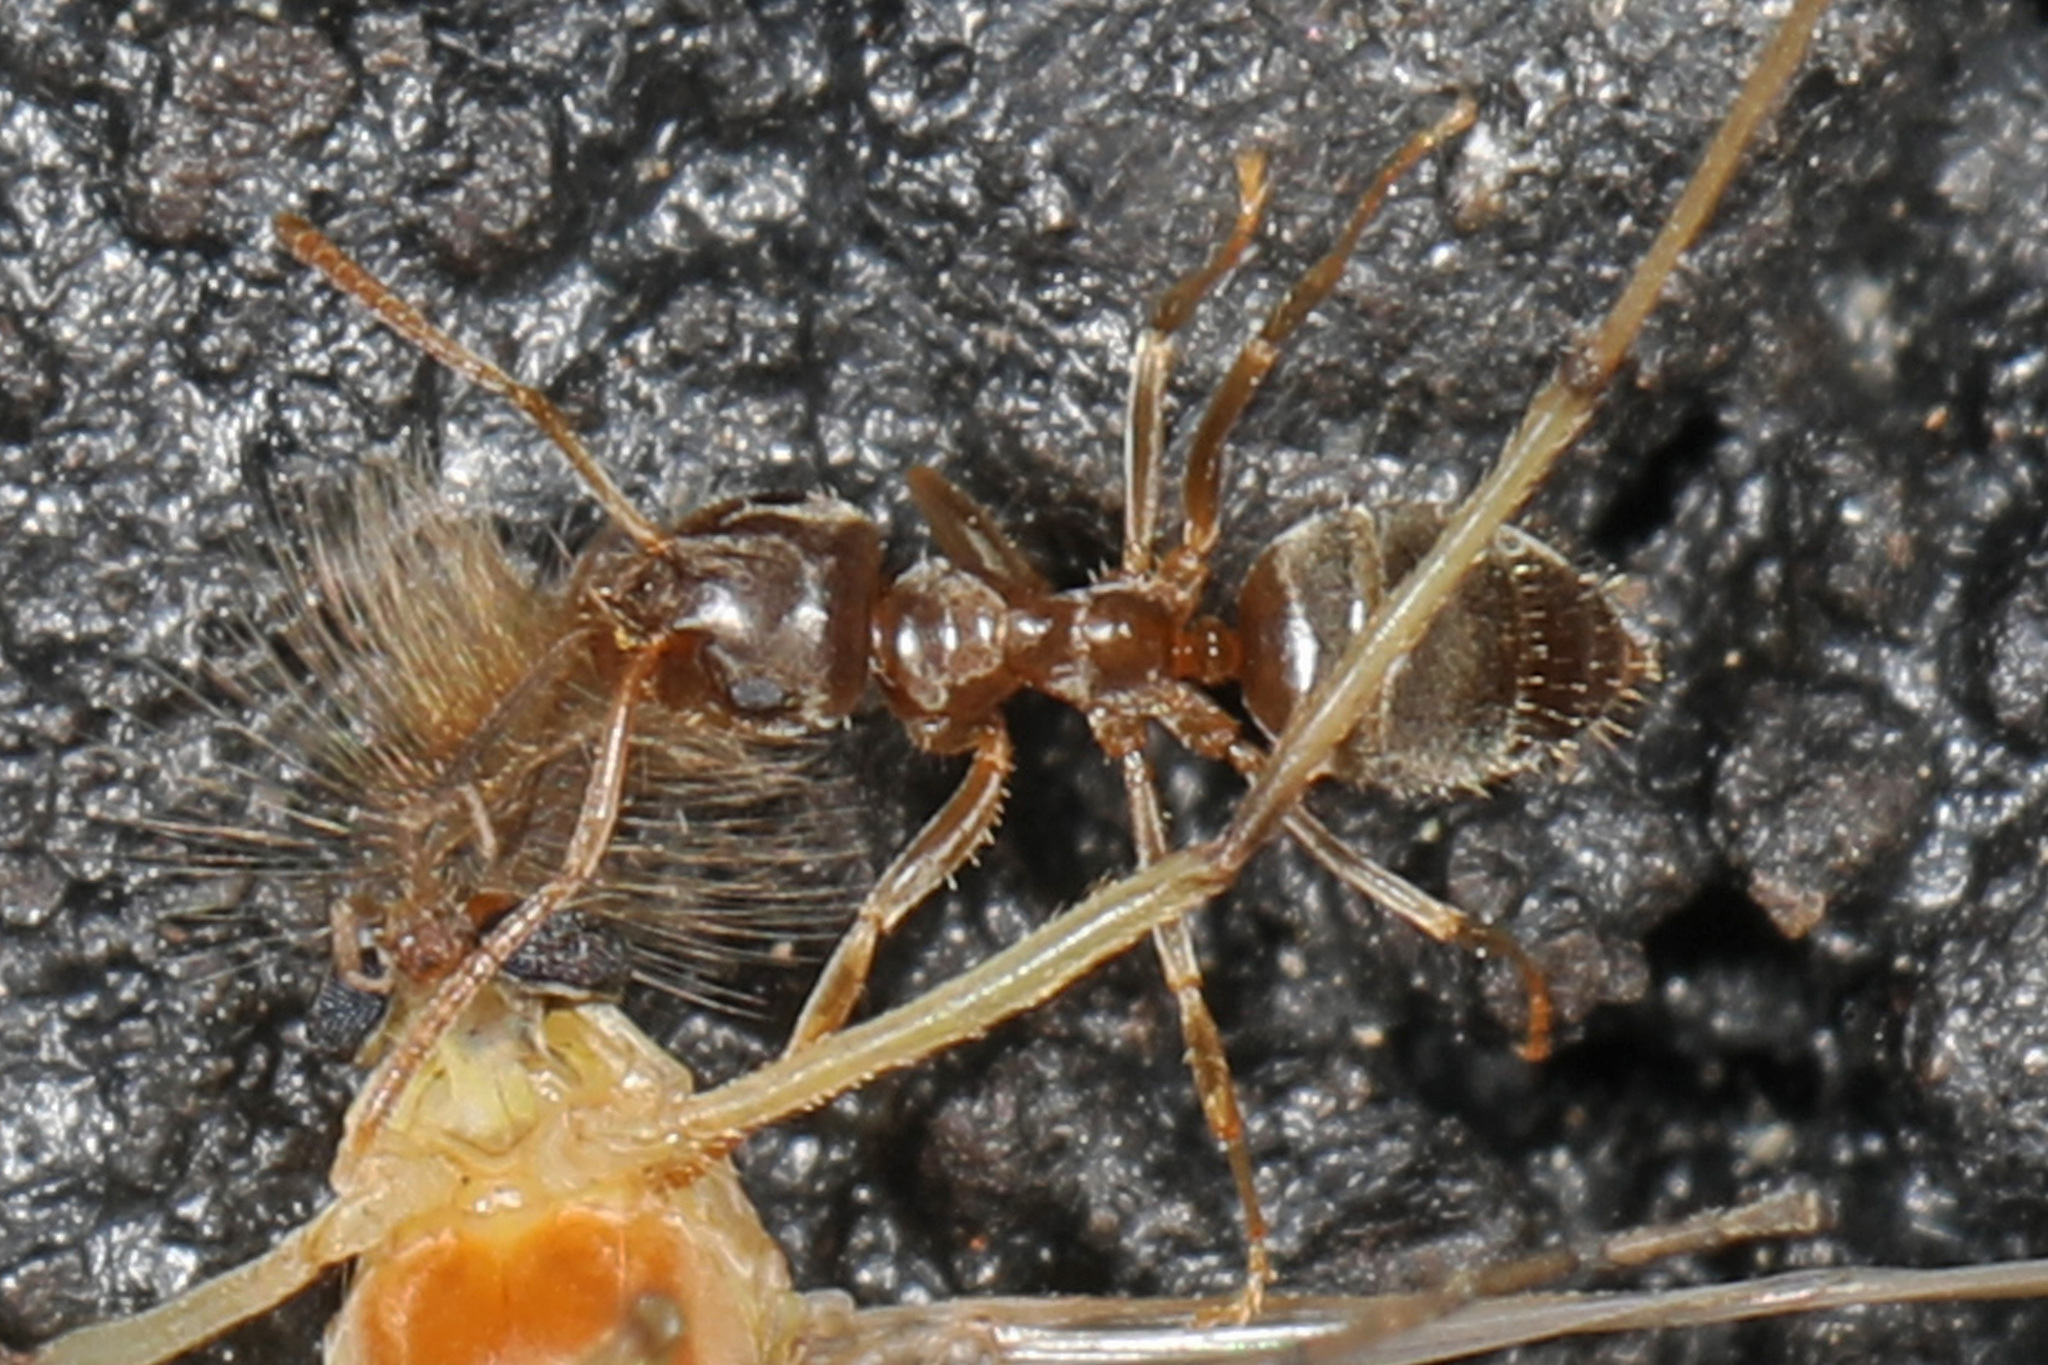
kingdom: Animalia
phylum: Arthropoda
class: Insecta
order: Hymenoptera
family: Formicidae
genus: Lasius
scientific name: Lasius neoniger
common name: Turfgrass ant
